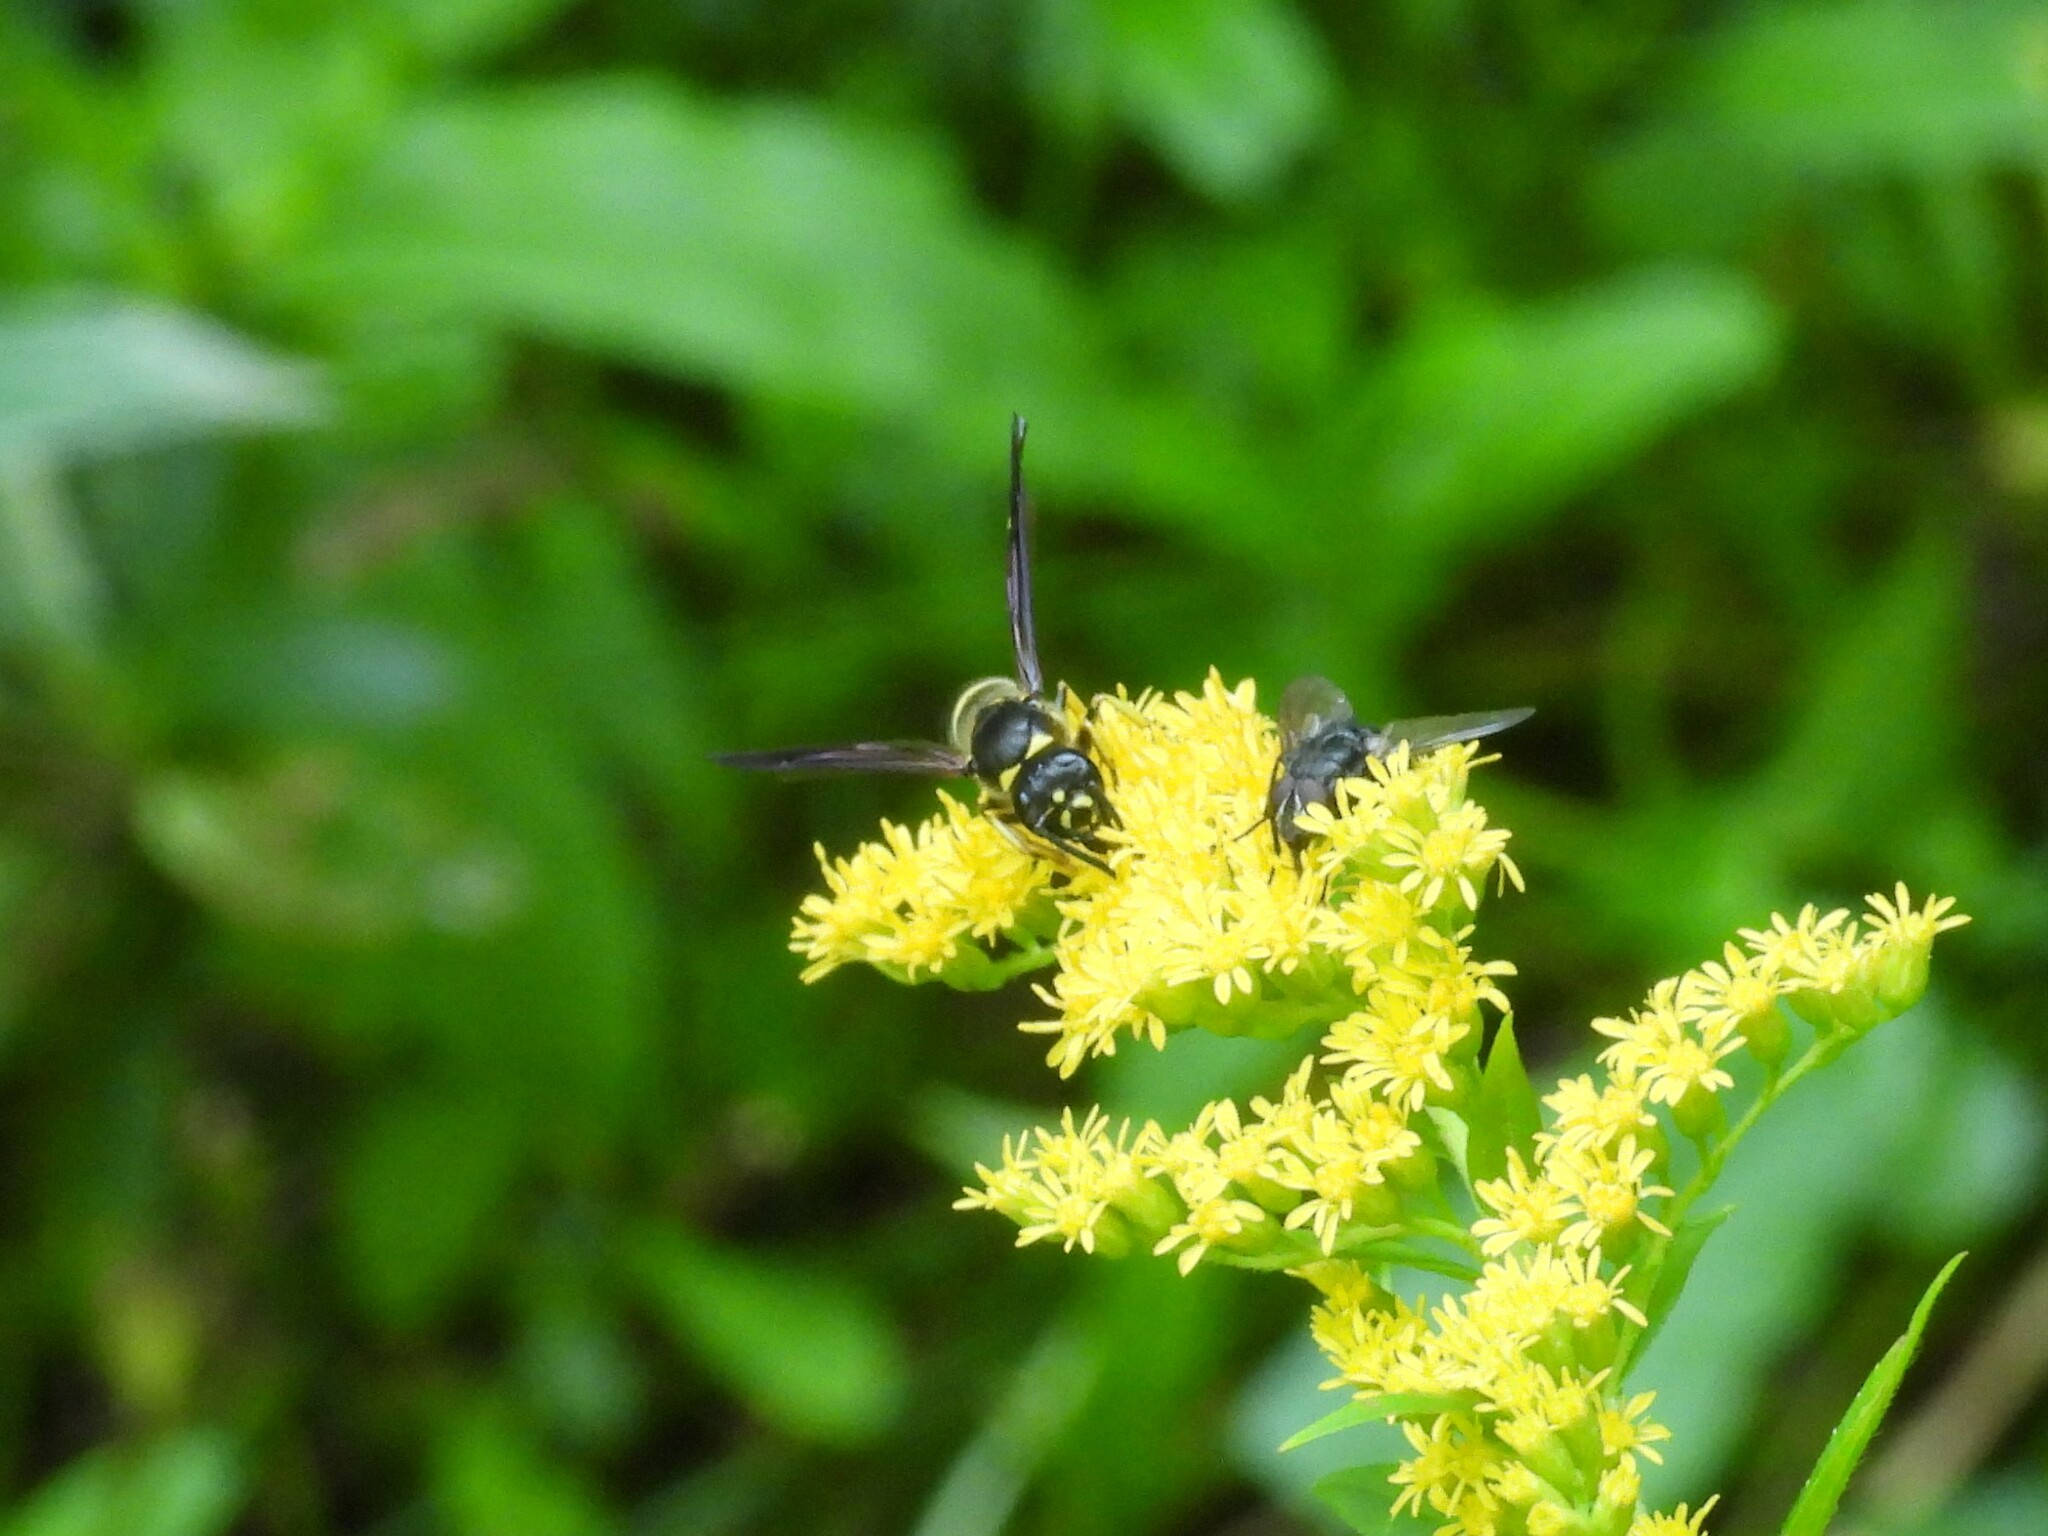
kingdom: Animalia
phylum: Arthropoda
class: Insecta
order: Hymenoptera
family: Vespidae
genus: Ancistrocerus
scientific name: Ancistrocerus
